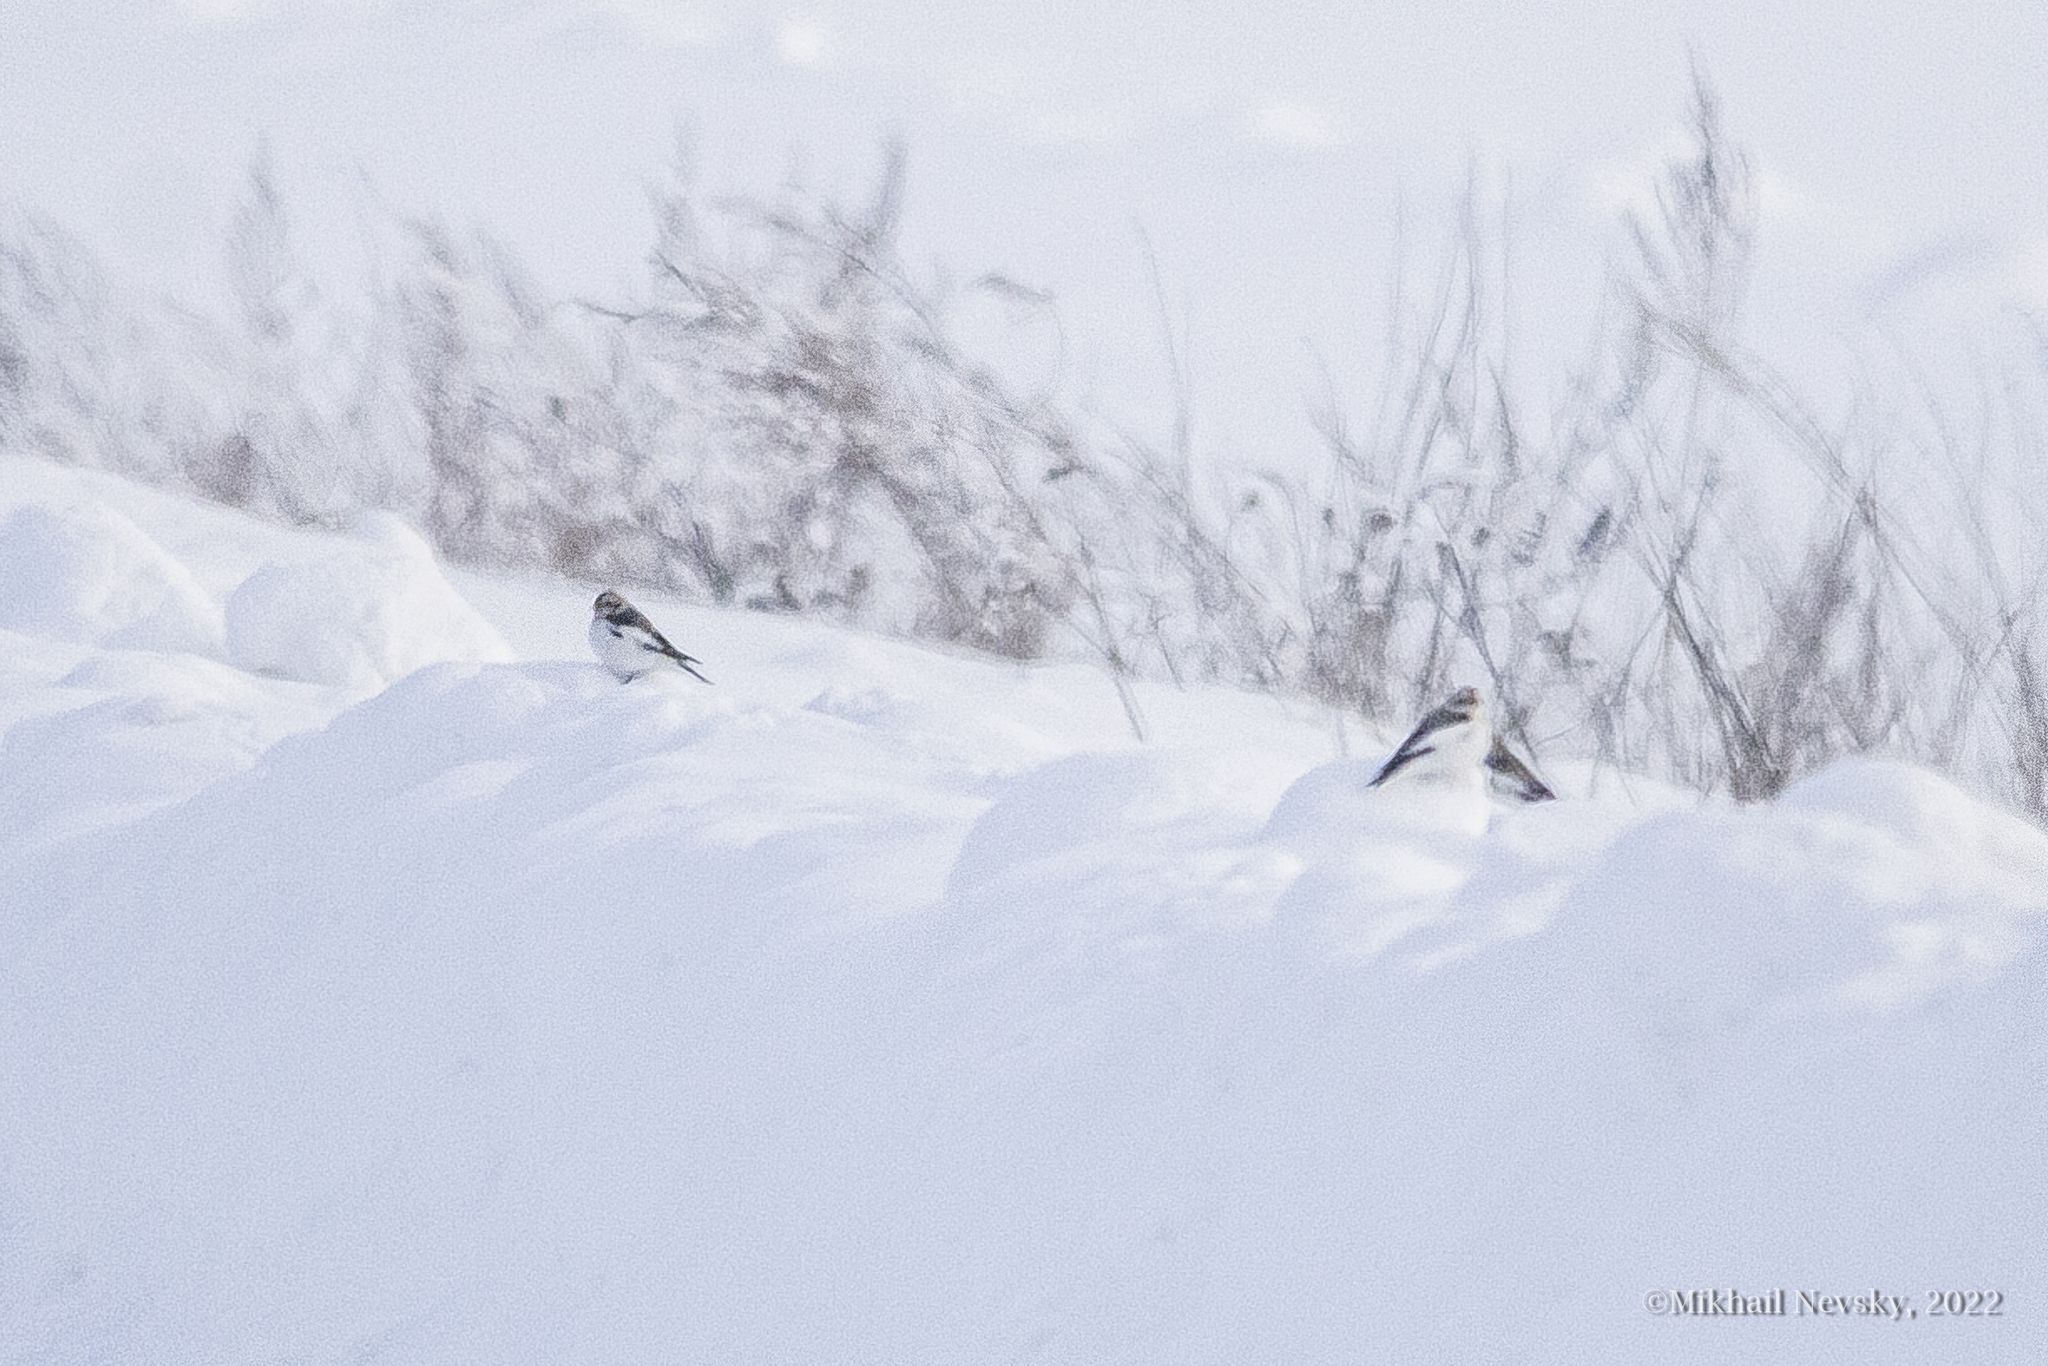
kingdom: Animalia
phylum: Chordata
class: Aves
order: Passeriformes
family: Calcariidae
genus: Plectrophenax
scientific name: Plectrophenax nivalis
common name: Snow bunting
